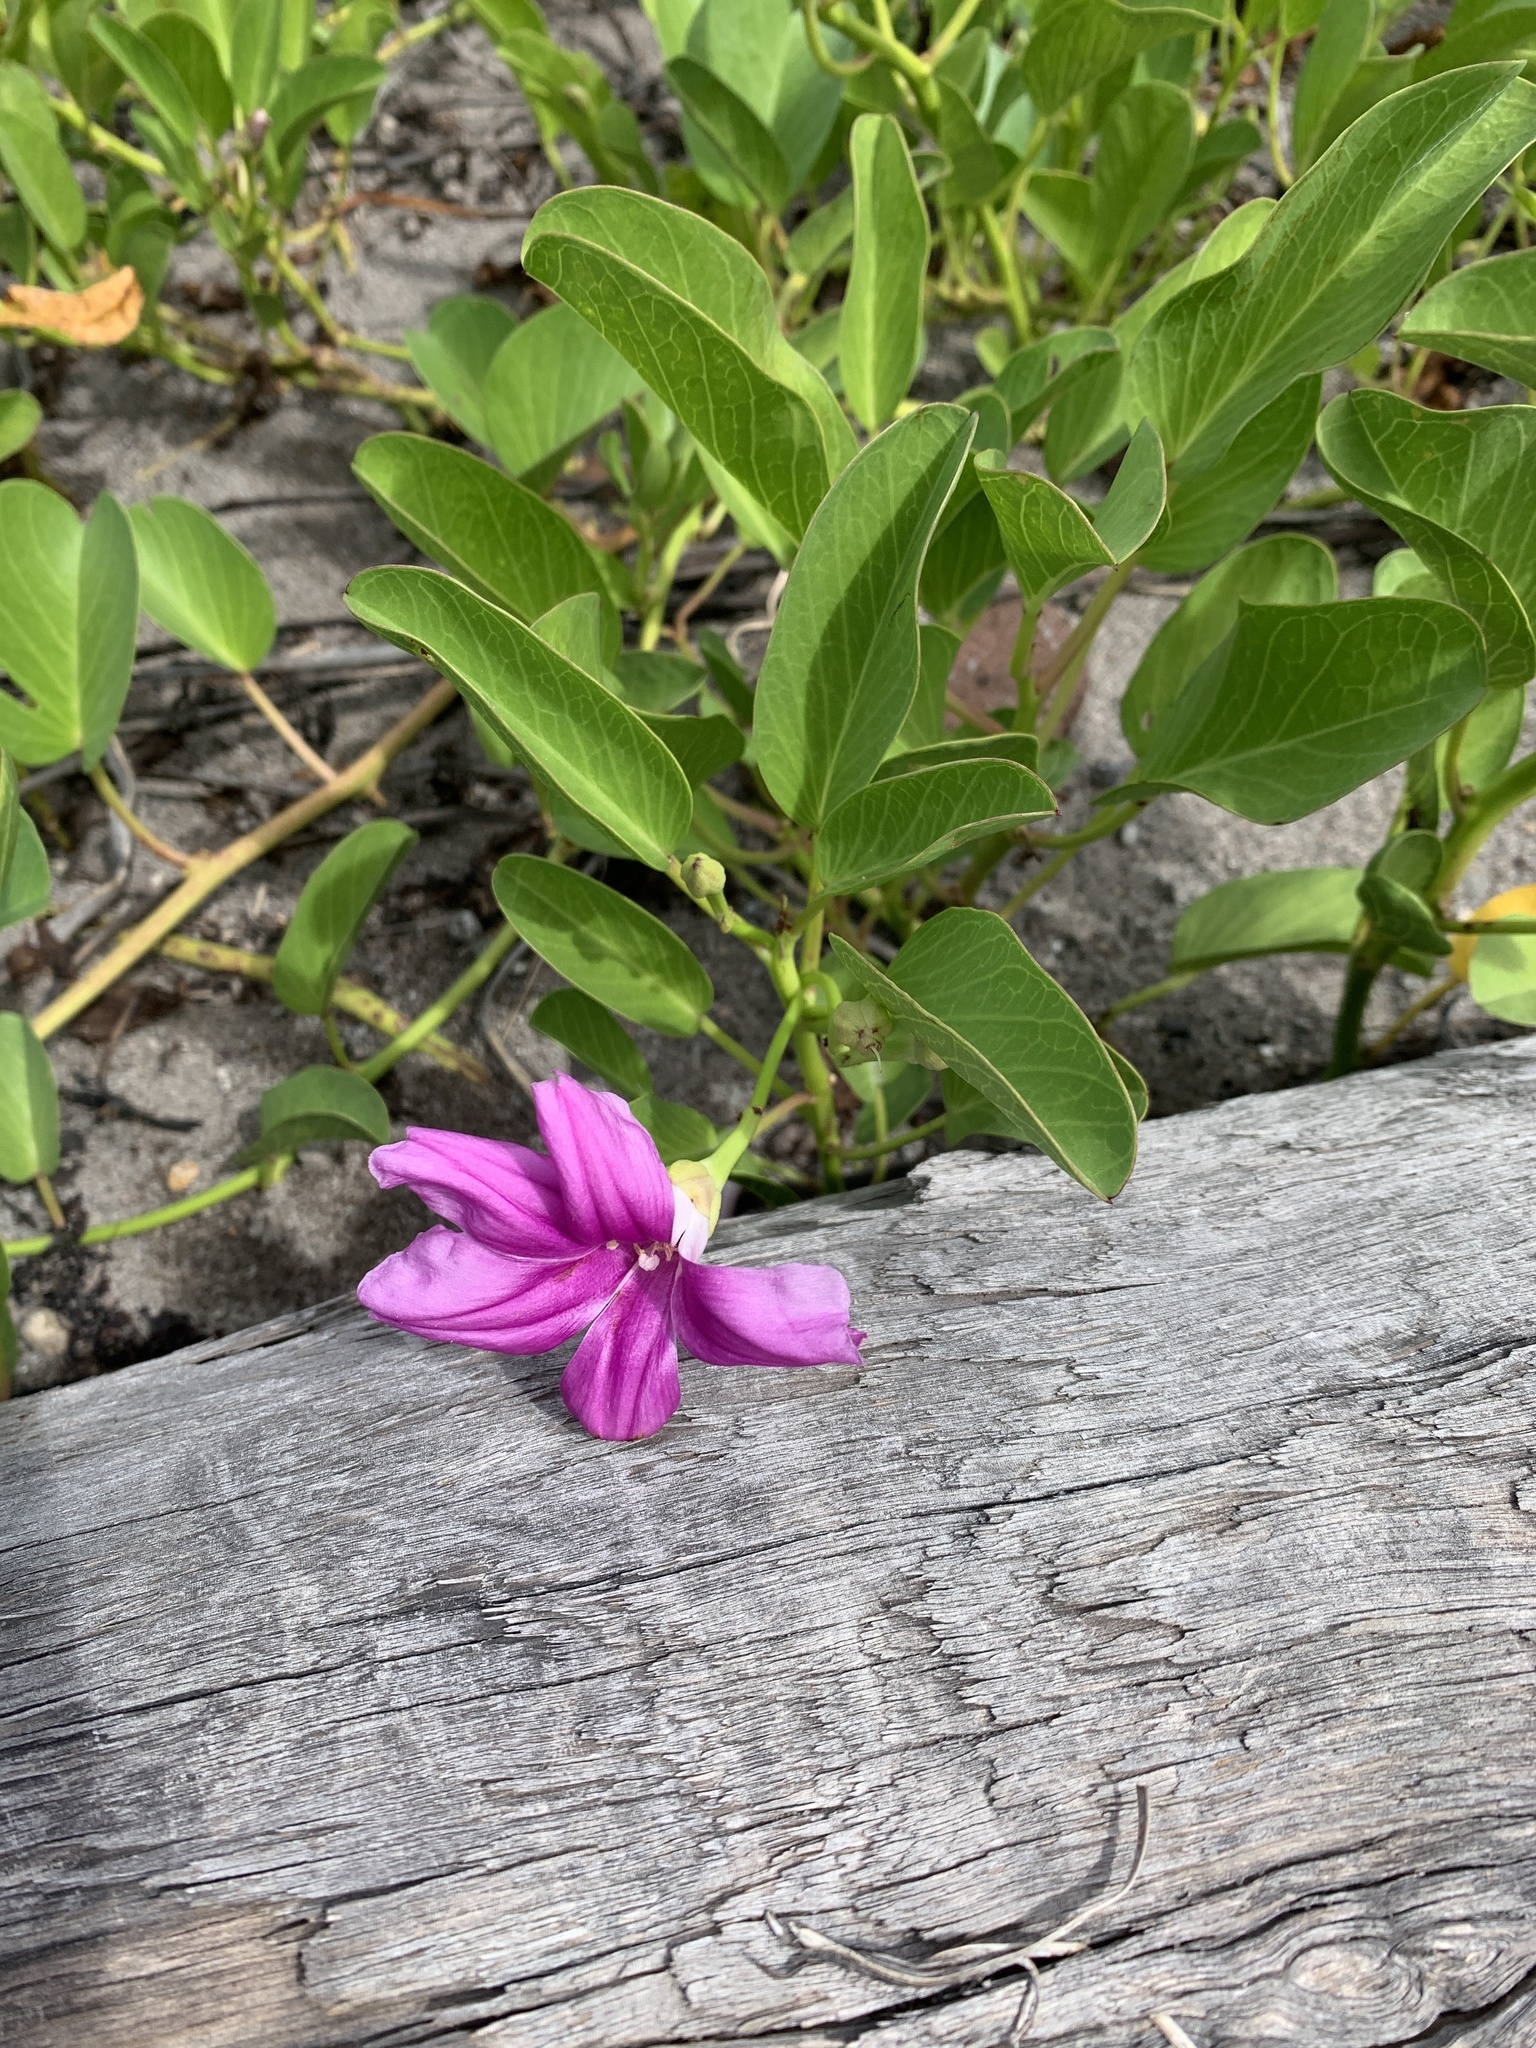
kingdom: Plantae
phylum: Tracheophyta
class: Magnoliopsida
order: Solanales
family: Convolvulaceae
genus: Ipomoea
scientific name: Ipomoea pes-caprae
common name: Beach morning glory
